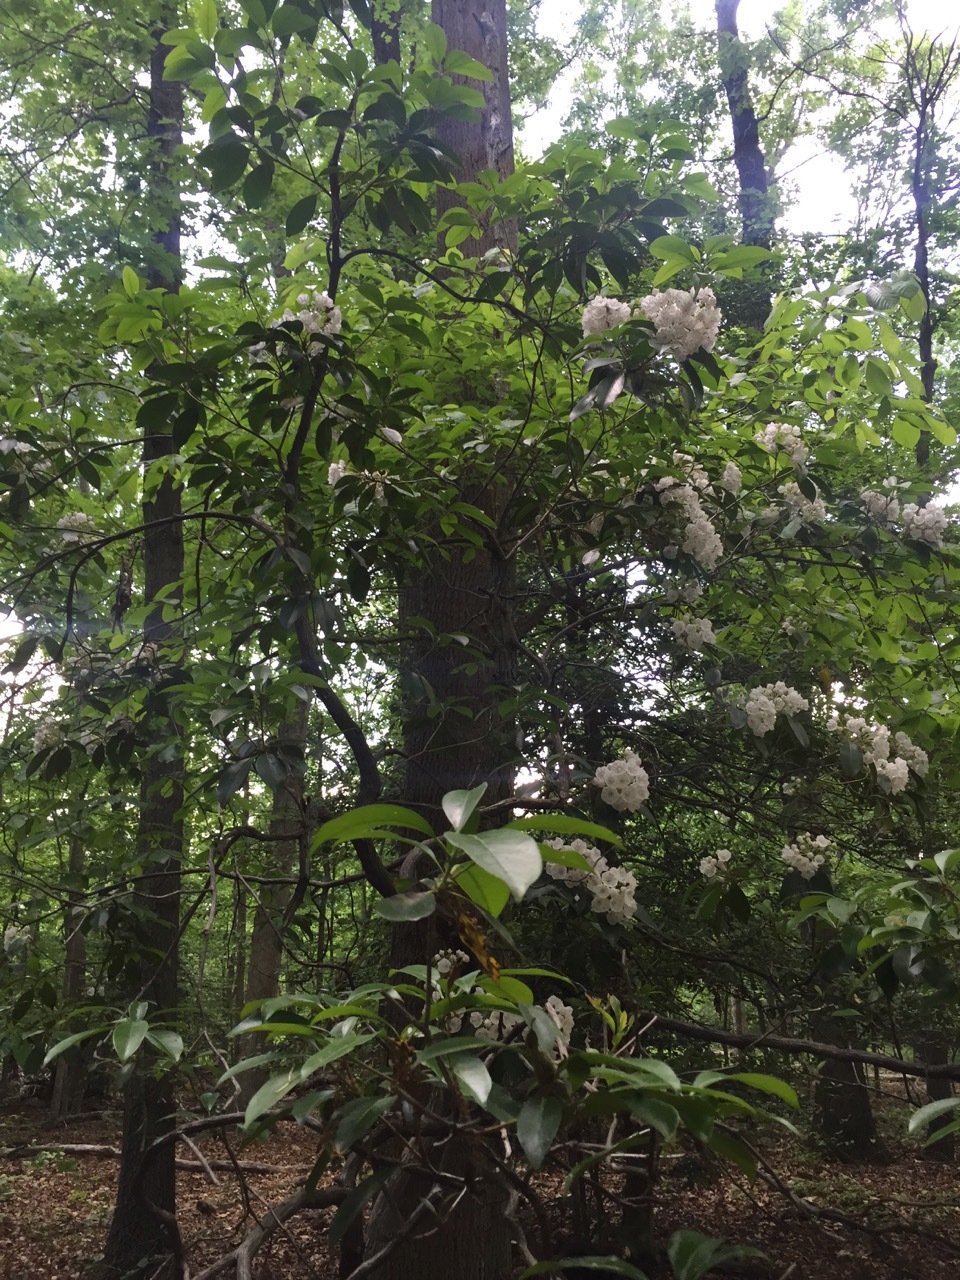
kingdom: Plantae
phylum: Tracheophyta
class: Magnoliopsida
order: Ericales
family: Ericaceae
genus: Kalmia
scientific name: Kalmia latifolia
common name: Mountain-laurel
